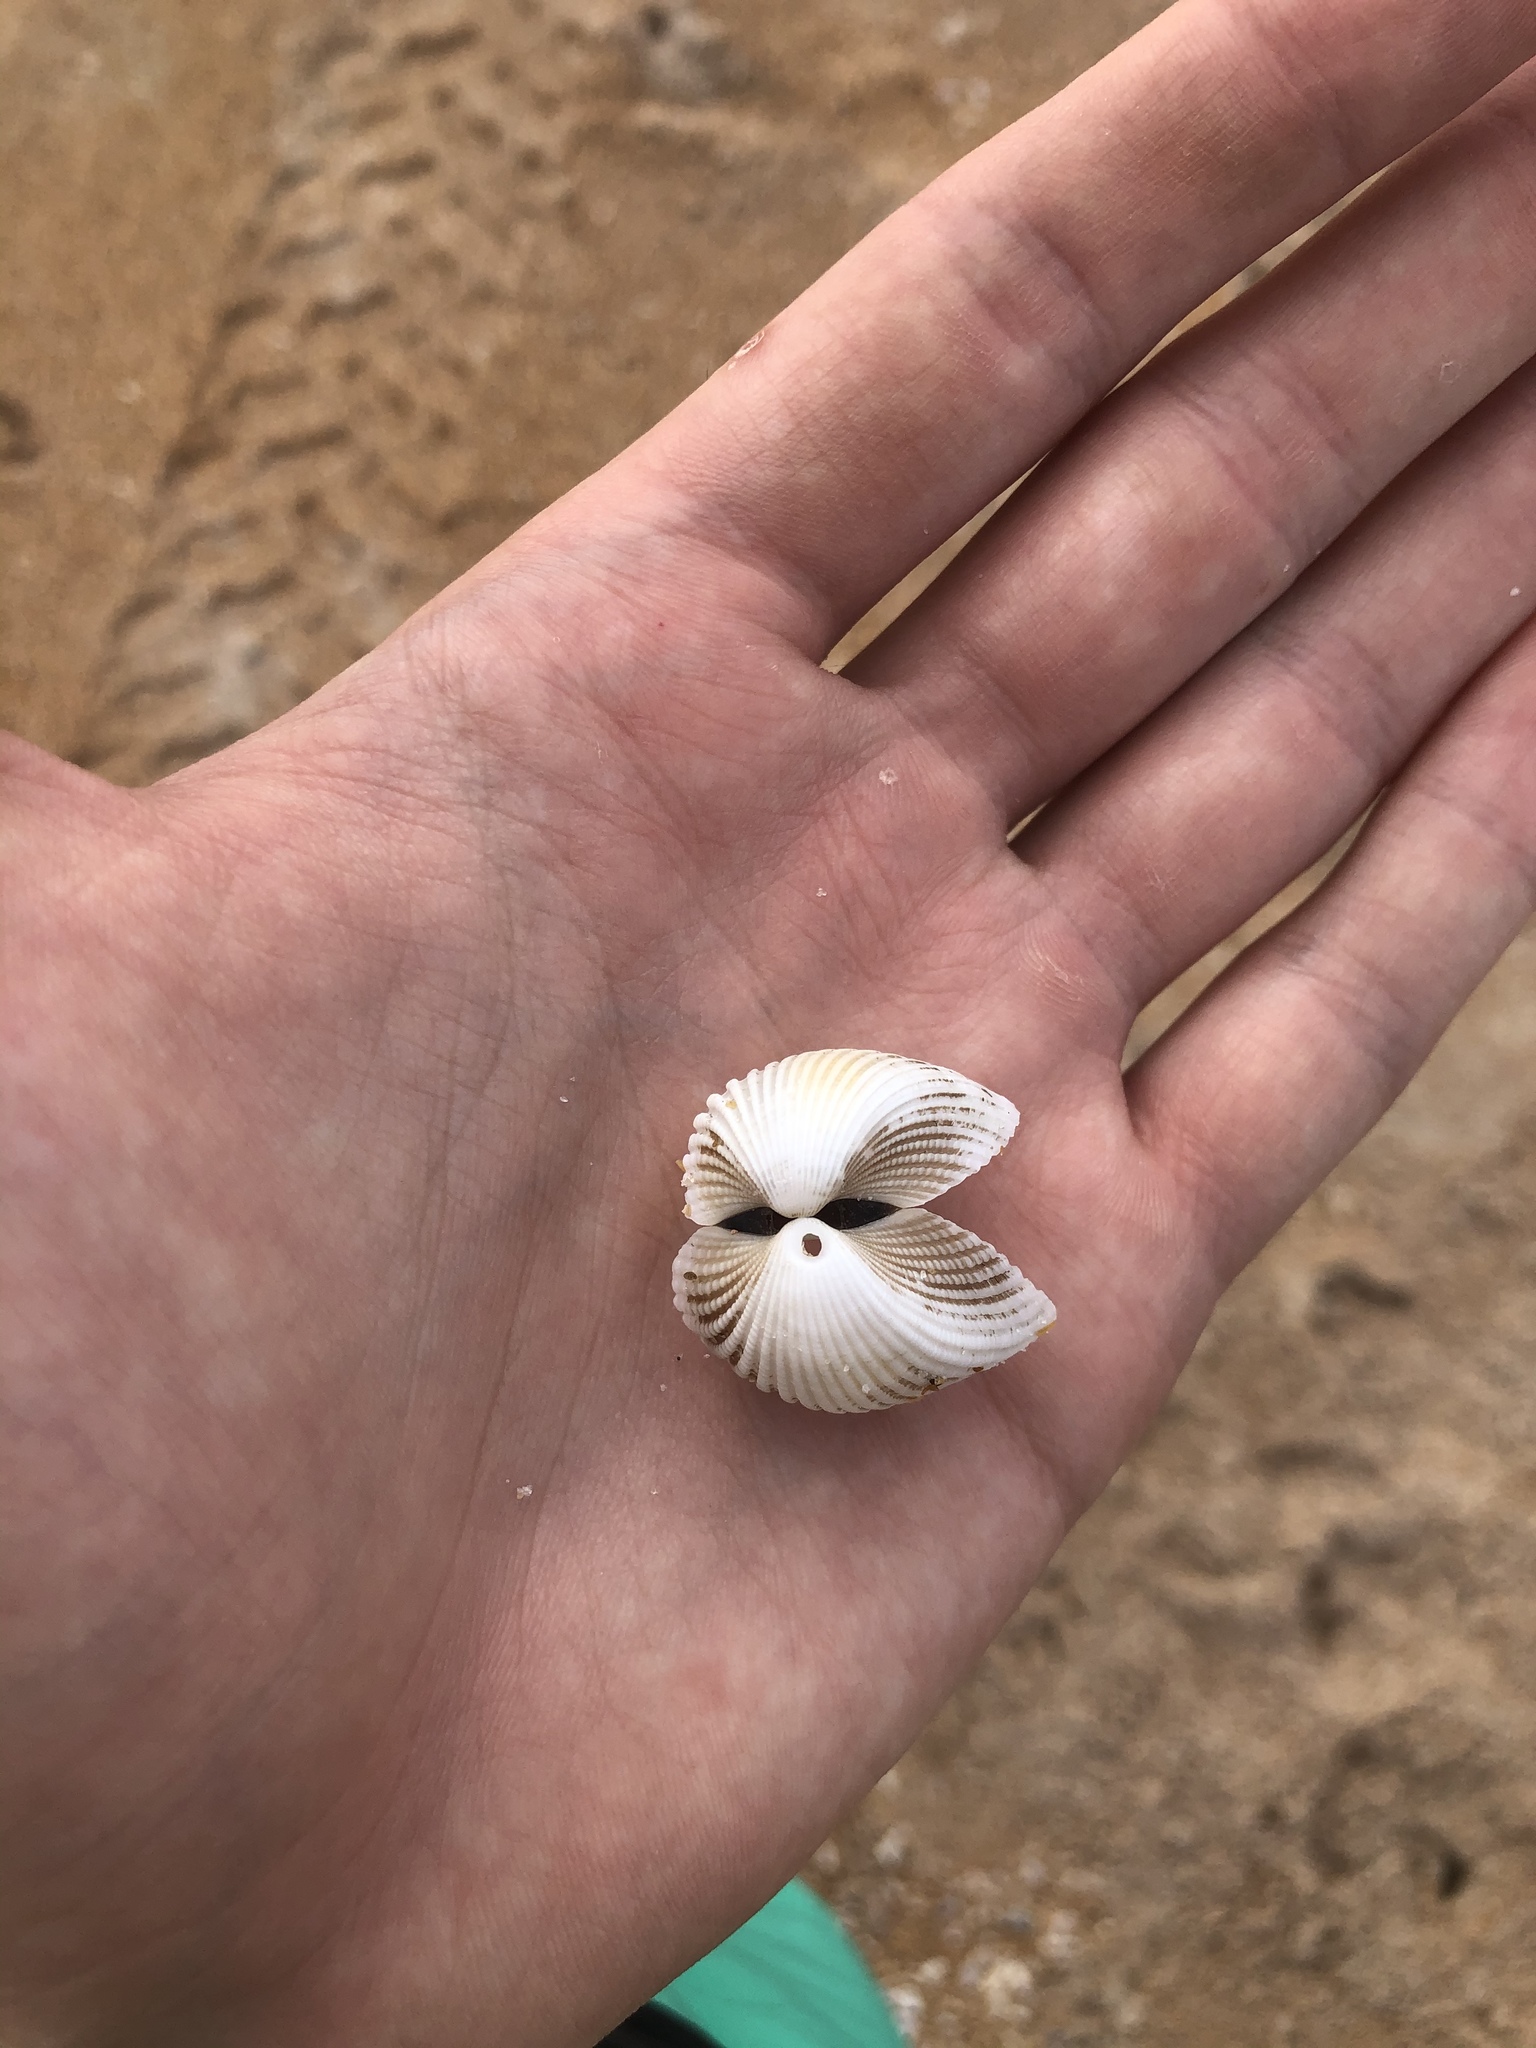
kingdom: Animalia
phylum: Mollusca
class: Bivalvia
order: Arcida
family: Arcidae
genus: Anadara
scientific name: Anadara brasiliana
